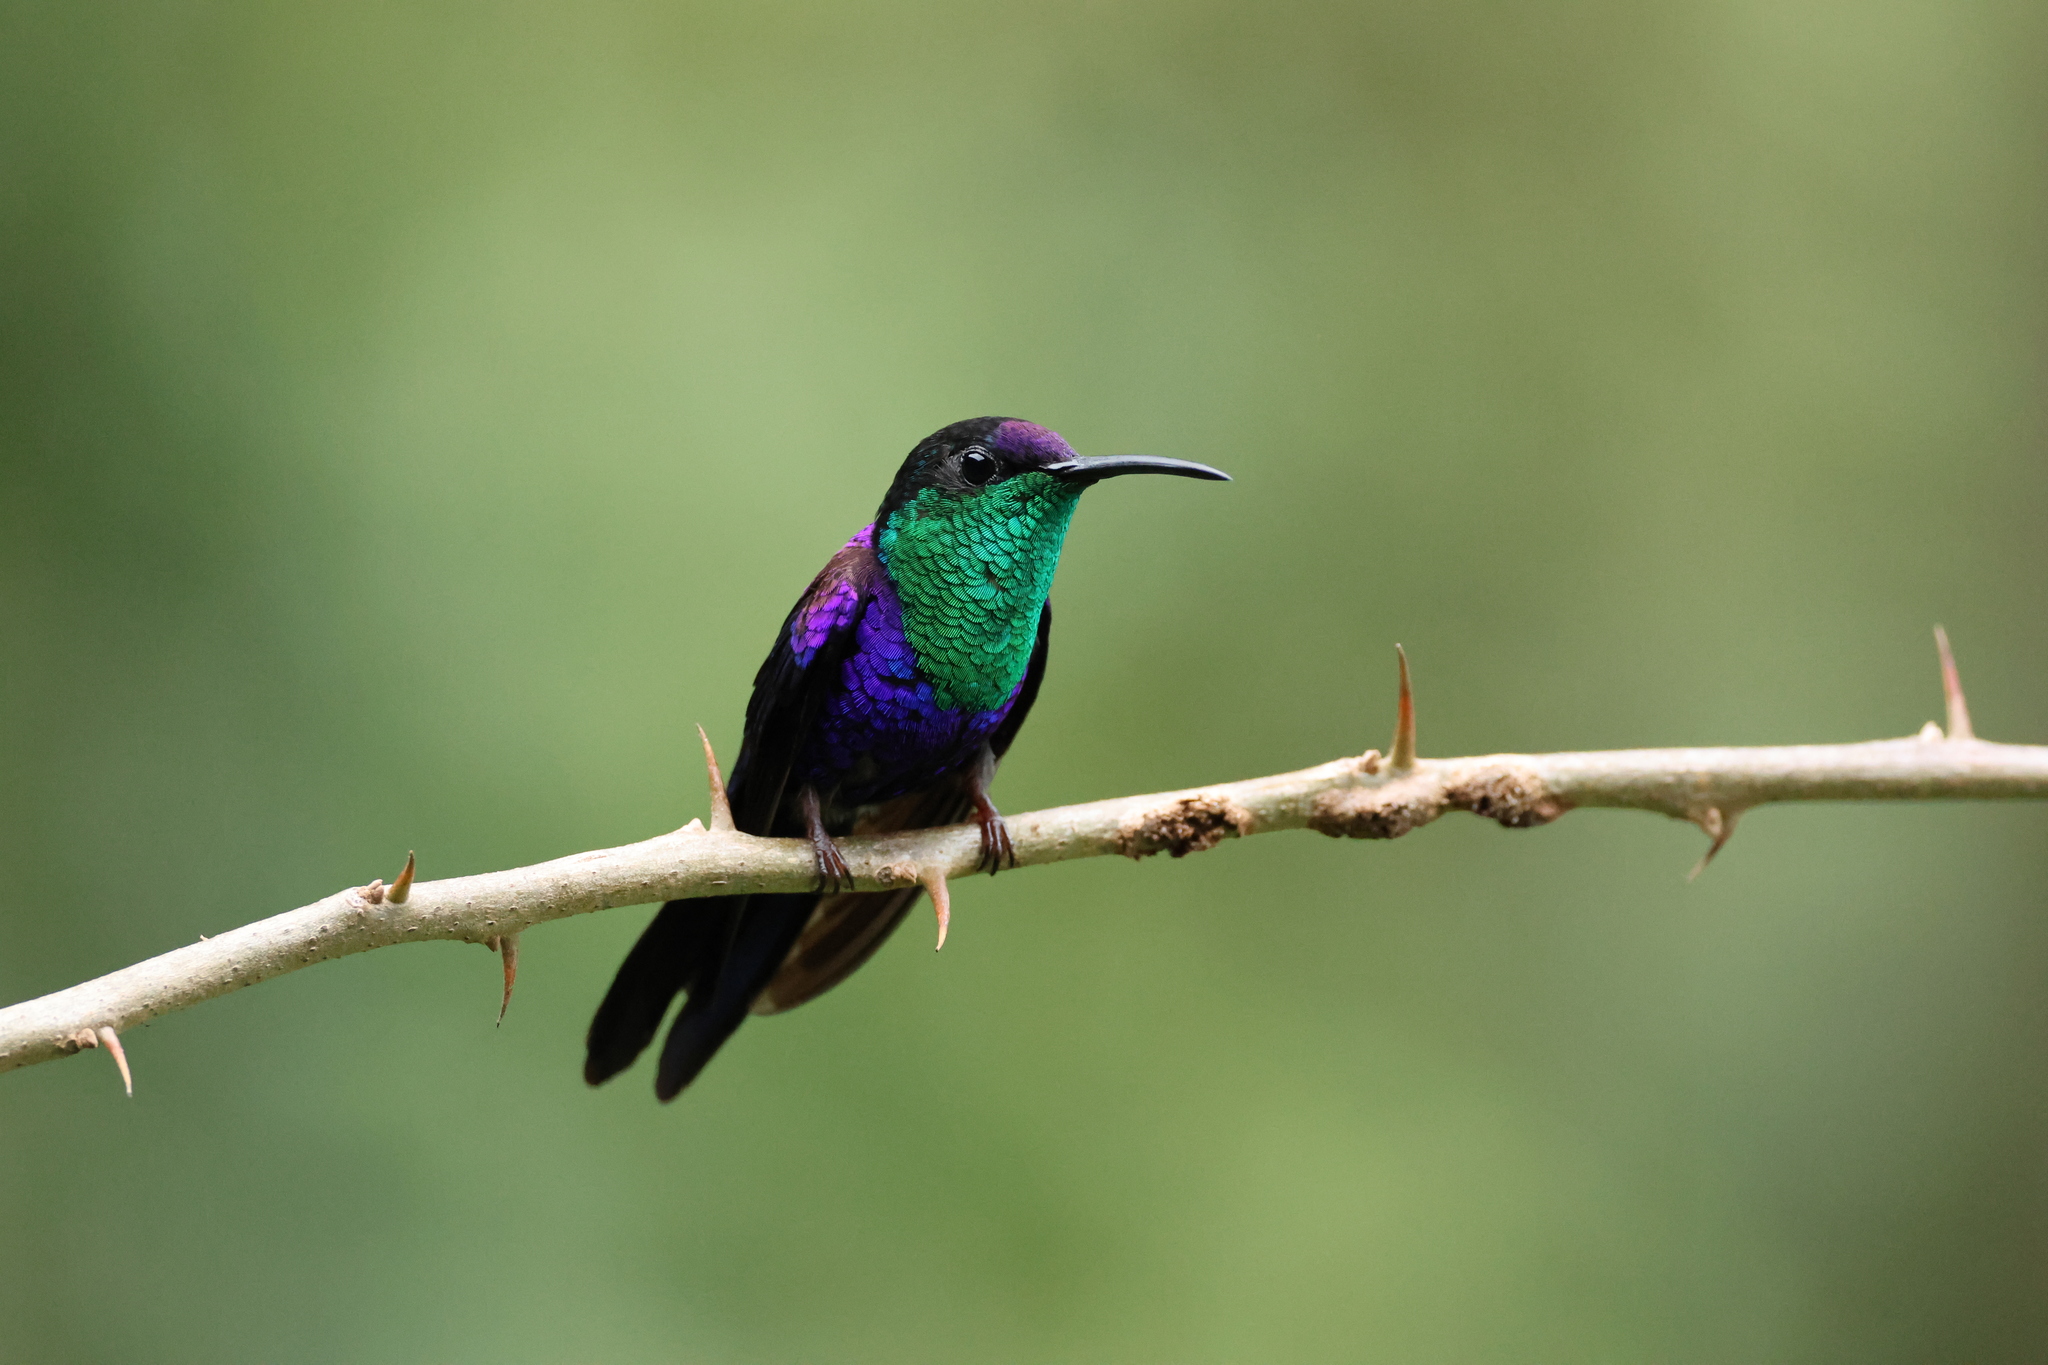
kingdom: Animalia
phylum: Chordata
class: Aves
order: Apodiformes
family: Trochilidae
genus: Thalurania
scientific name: Thalurania colombica
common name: Crowned woodnymph
